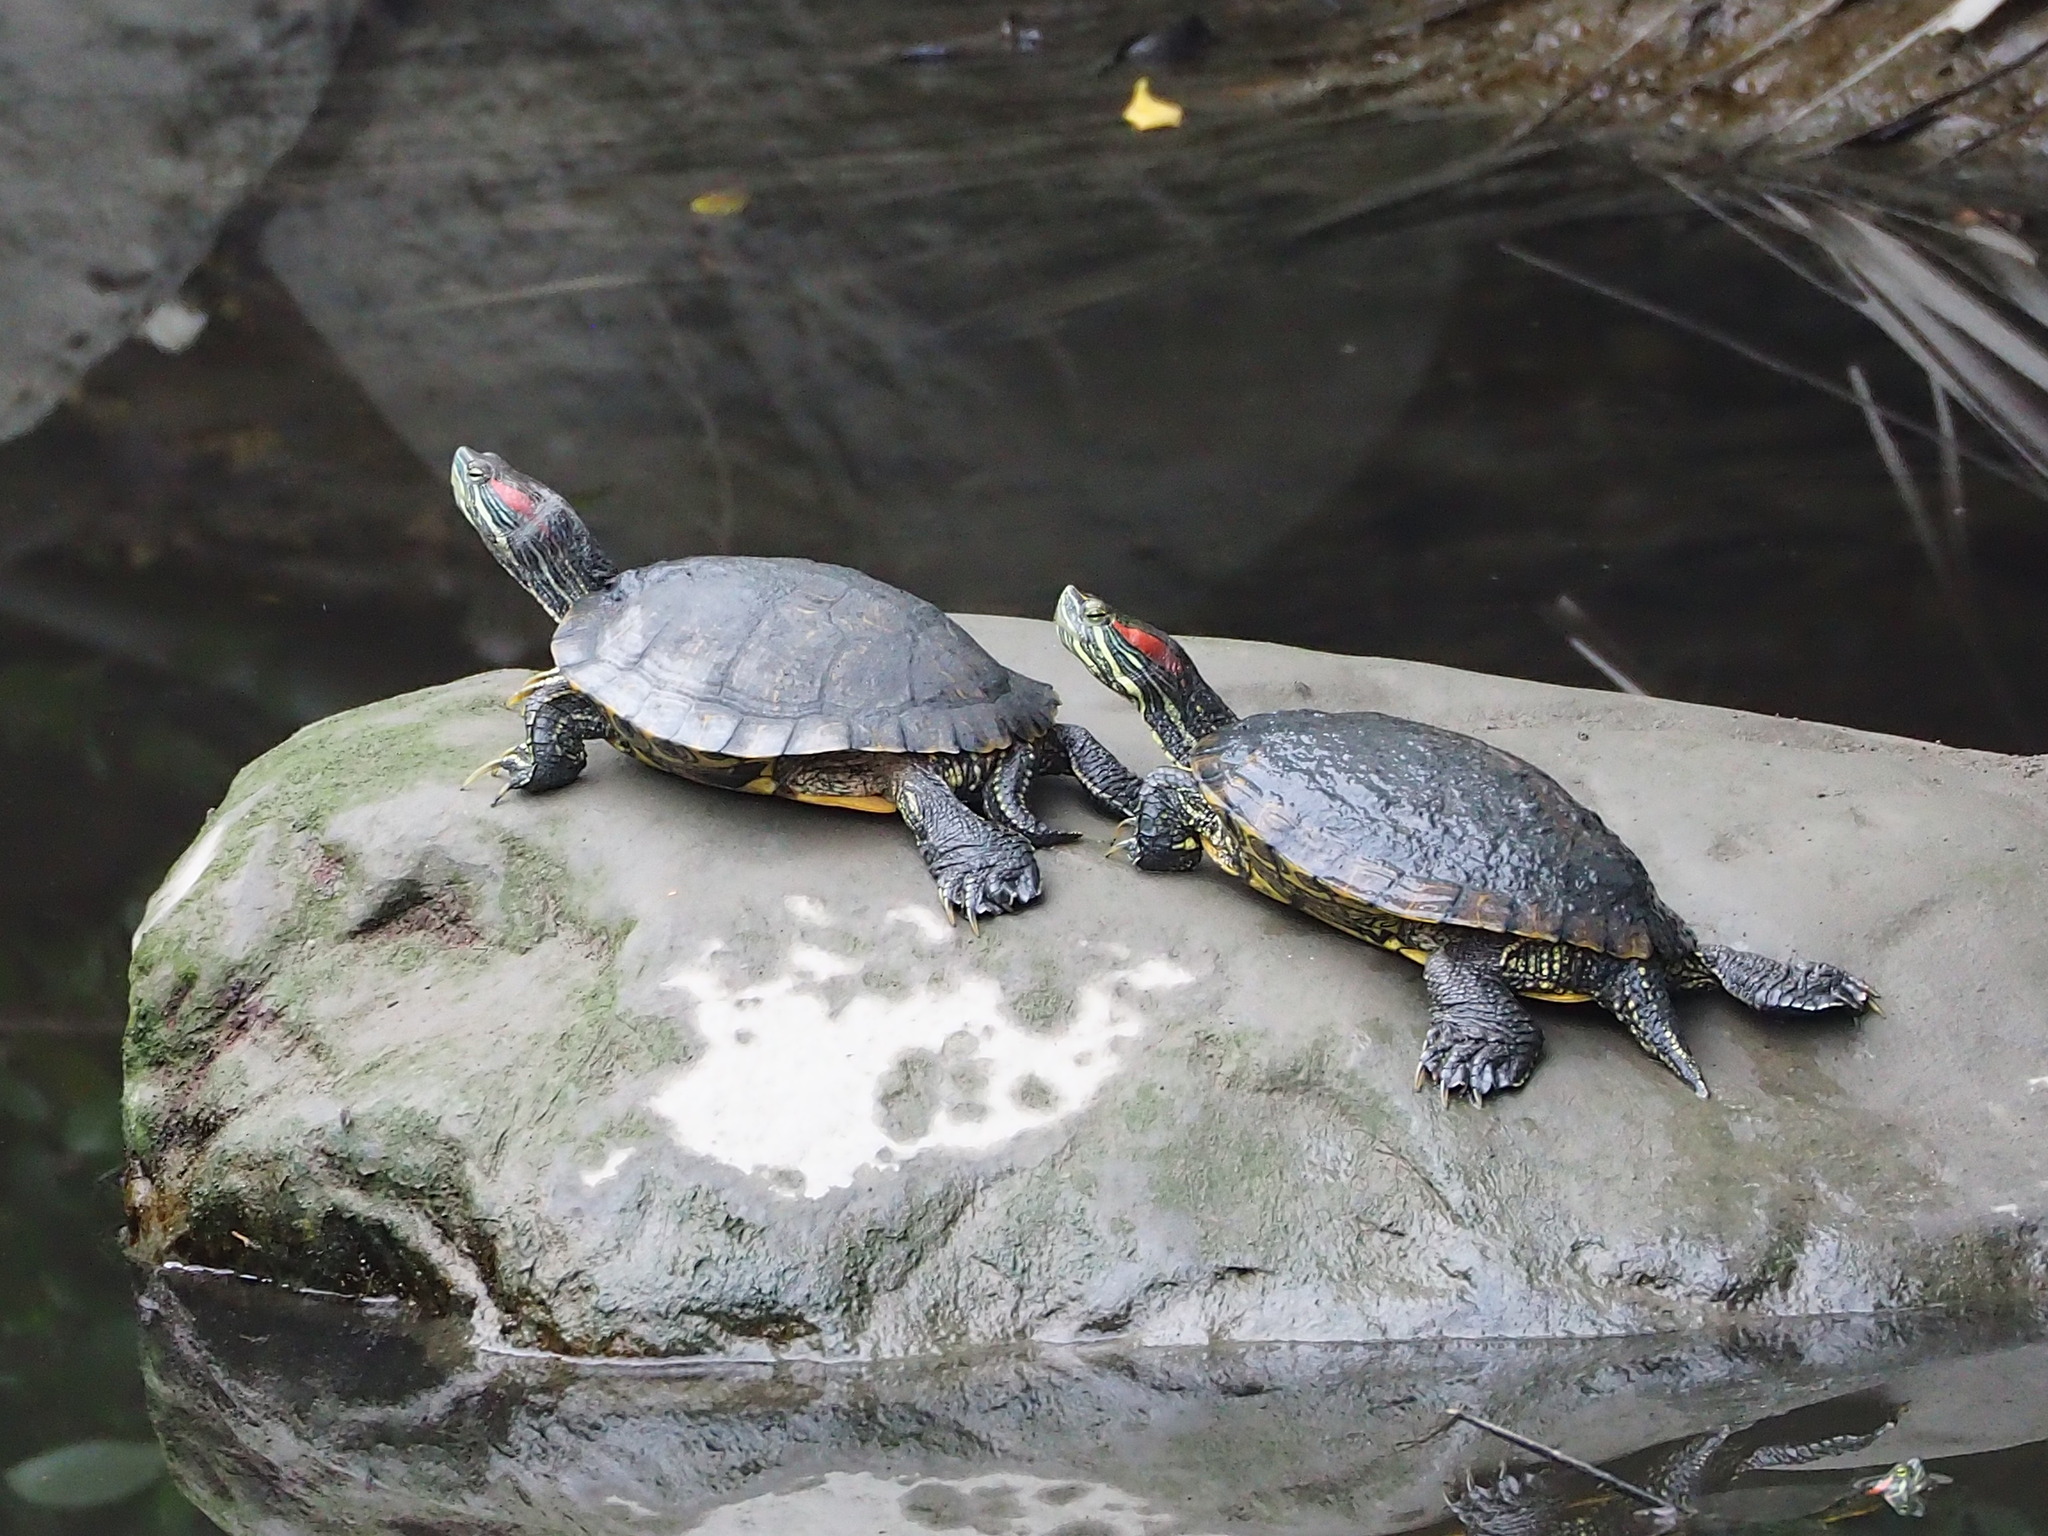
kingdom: Animalia
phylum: Chordata
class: Testudines
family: Emydidae
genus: Trachemys
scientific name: Trachemys scripta
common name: Slider
